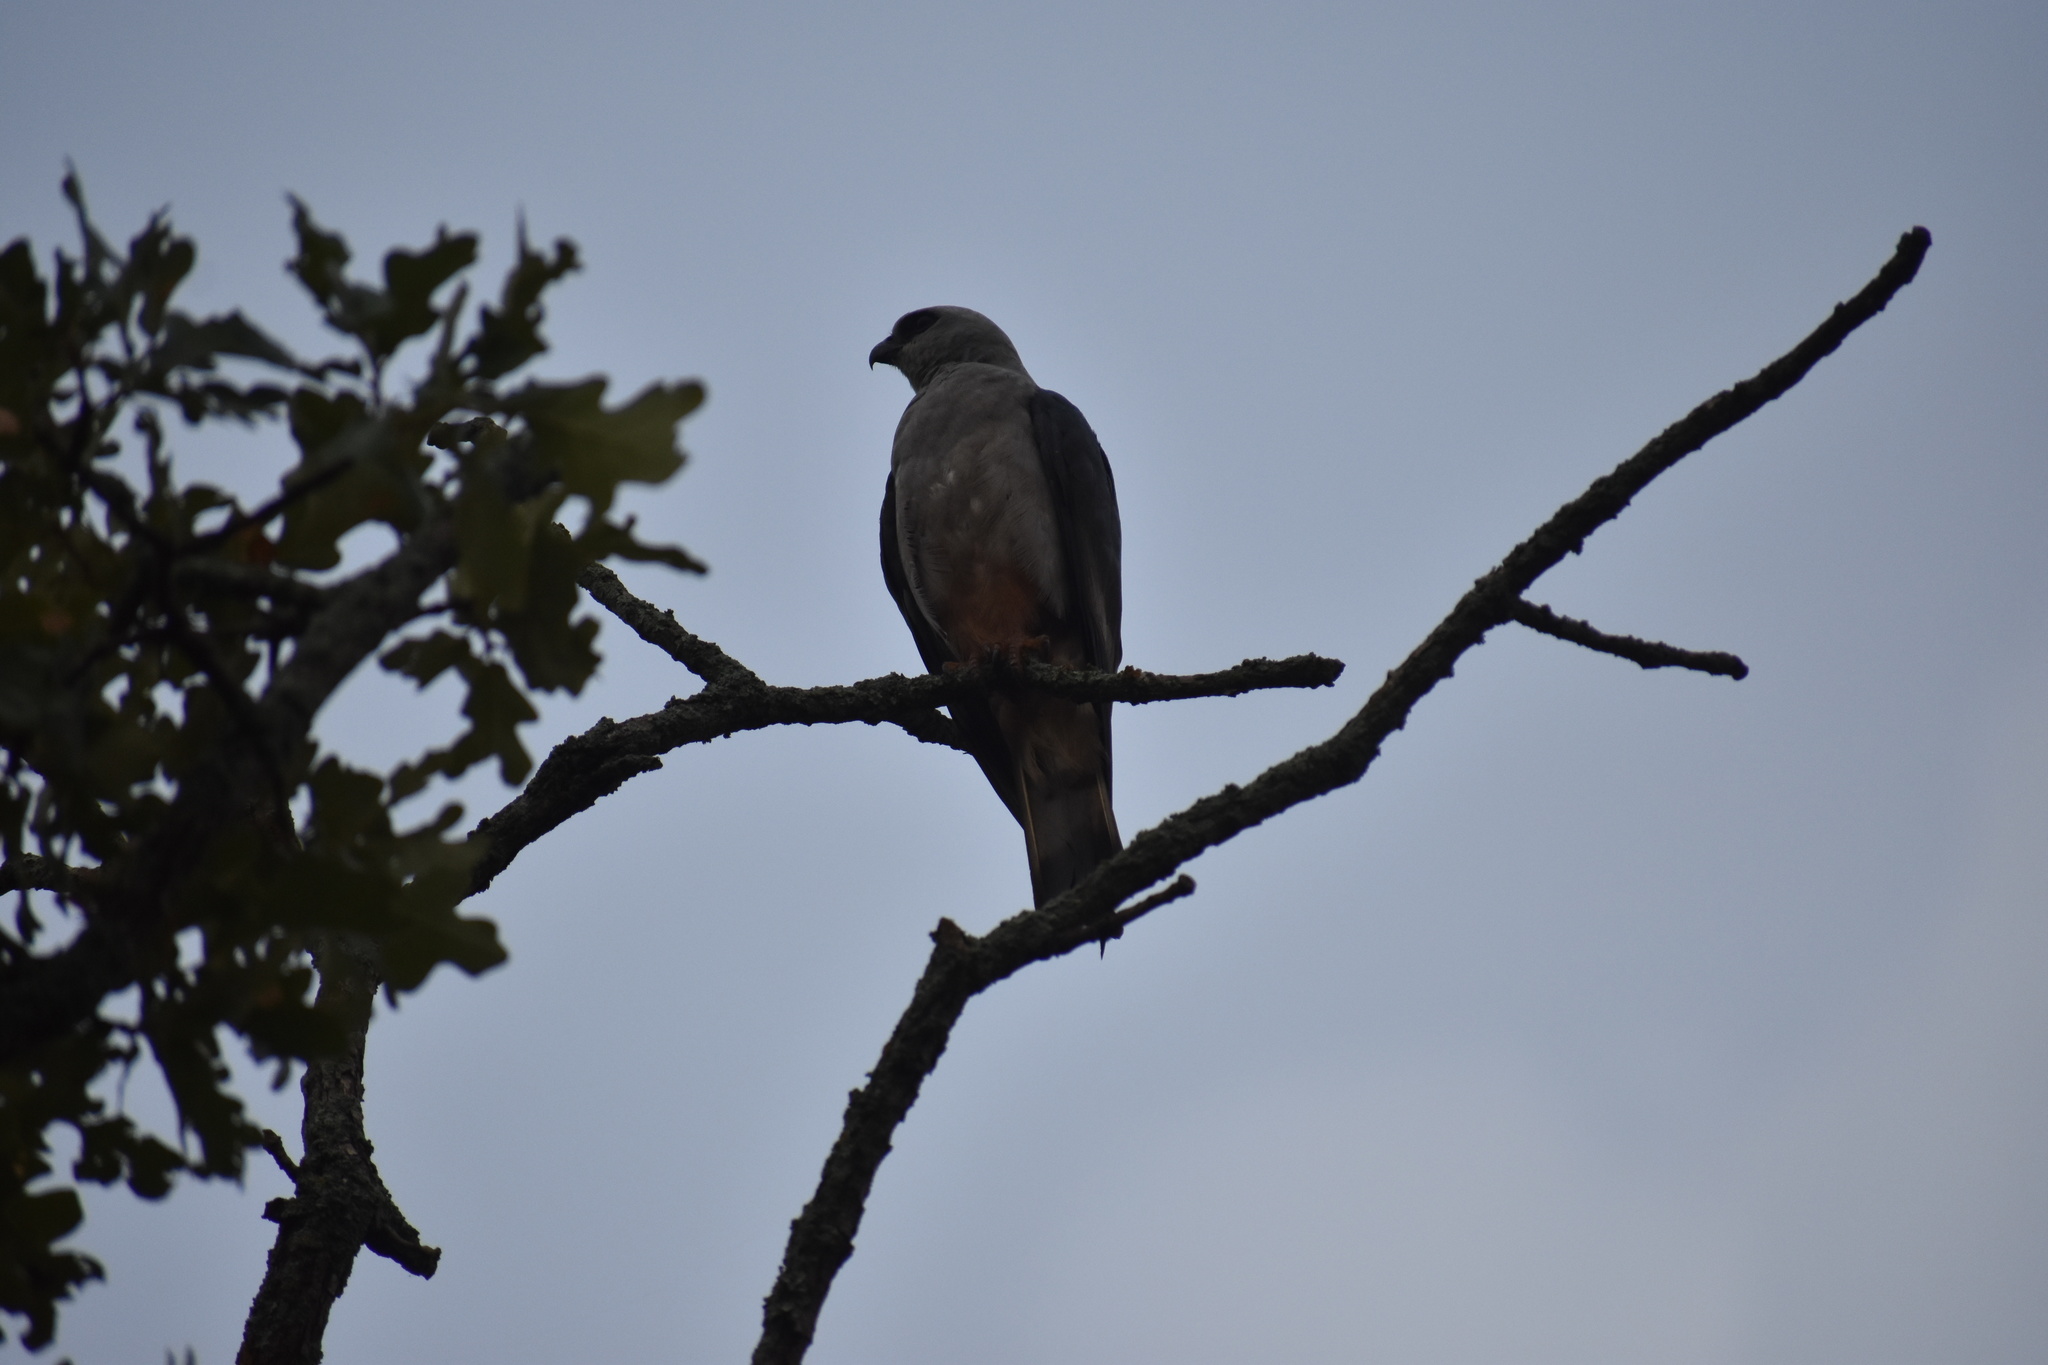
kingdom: Animalia
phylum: Chordata
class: Aves
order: Accipitriformes
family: Accipitridae
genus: Ictinia
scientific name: Ictinia mississippiensis
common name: Mississippi kite
